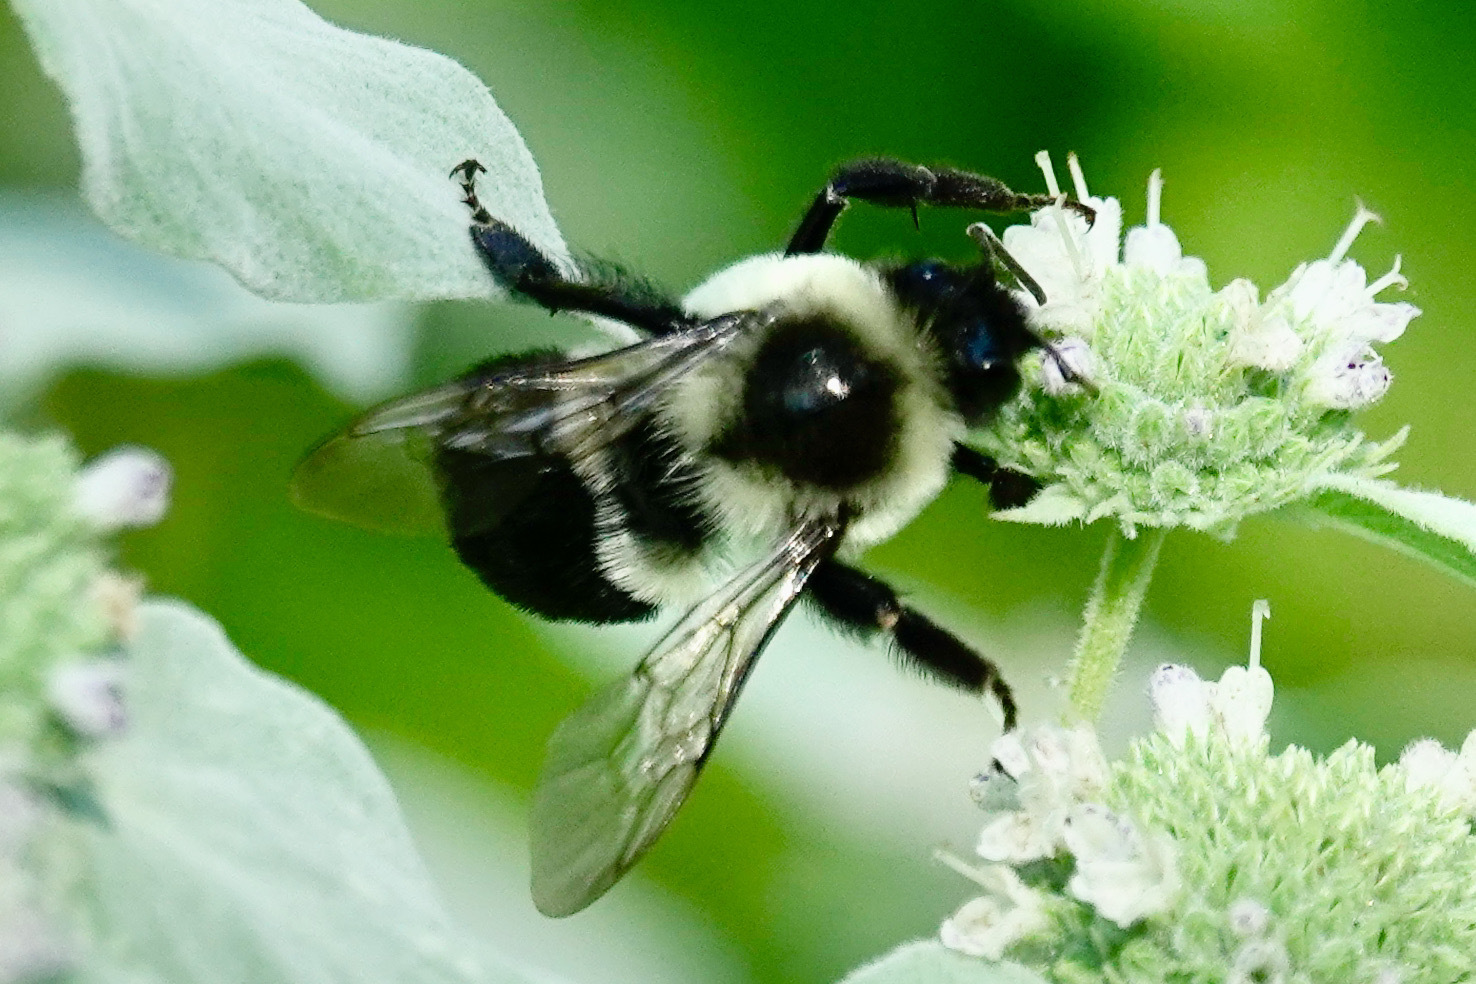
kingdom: Animalia
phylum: Arthropoda
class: Insecta
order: Hymenoptera
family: Apidae
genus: Bombus
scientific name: Bombus impatiens
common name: Common eastern bumble bee
